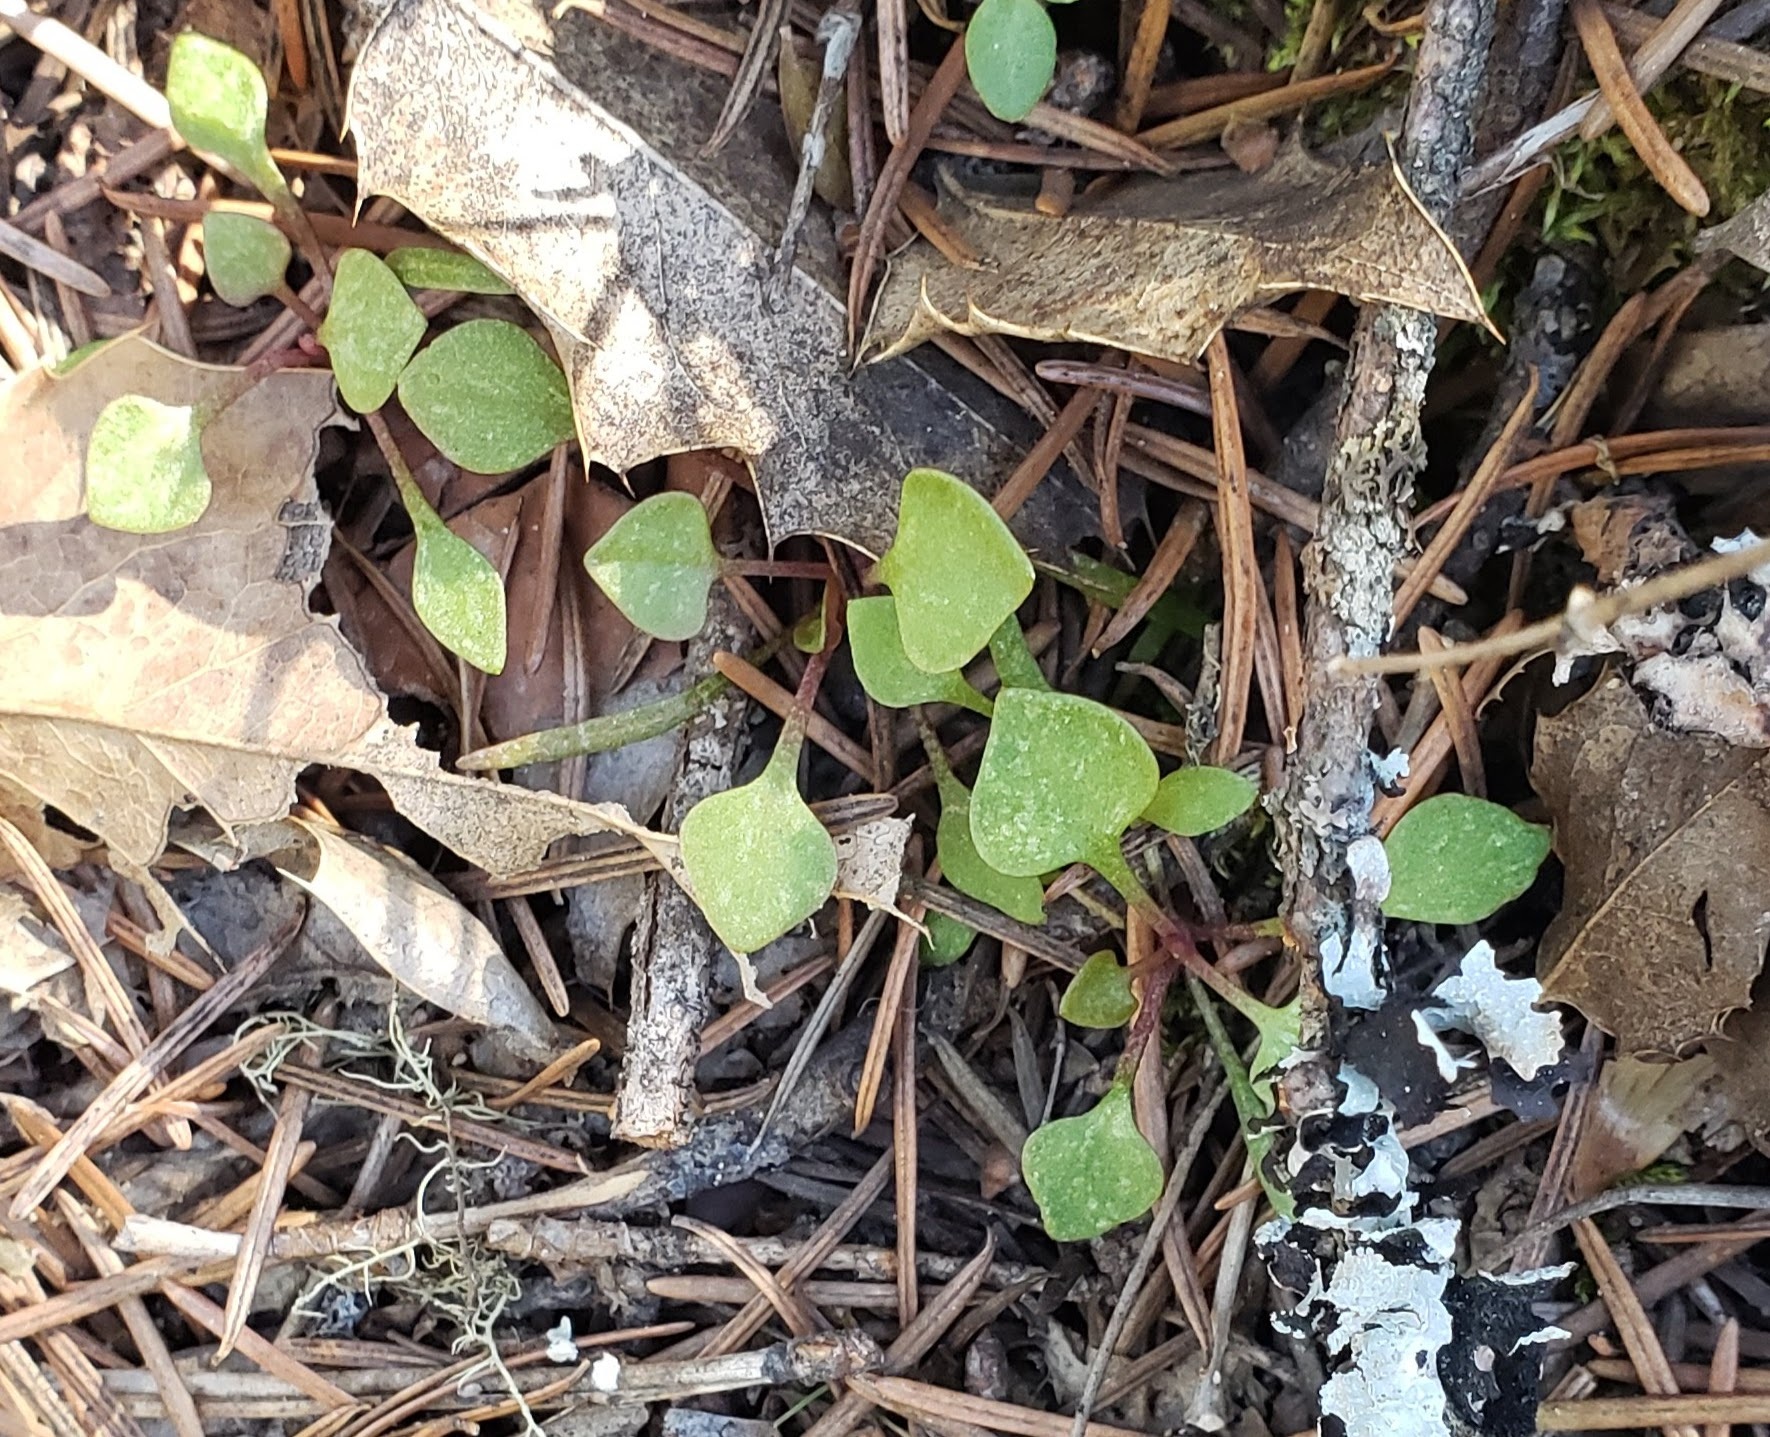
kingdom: Plantae
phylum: Tracheophyta
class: Magnoliopsida
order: Caryophyllales
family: Montiaceae
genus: Claytonia
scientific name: Claytonia rubra
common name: Erubescent miner's-lettuce
